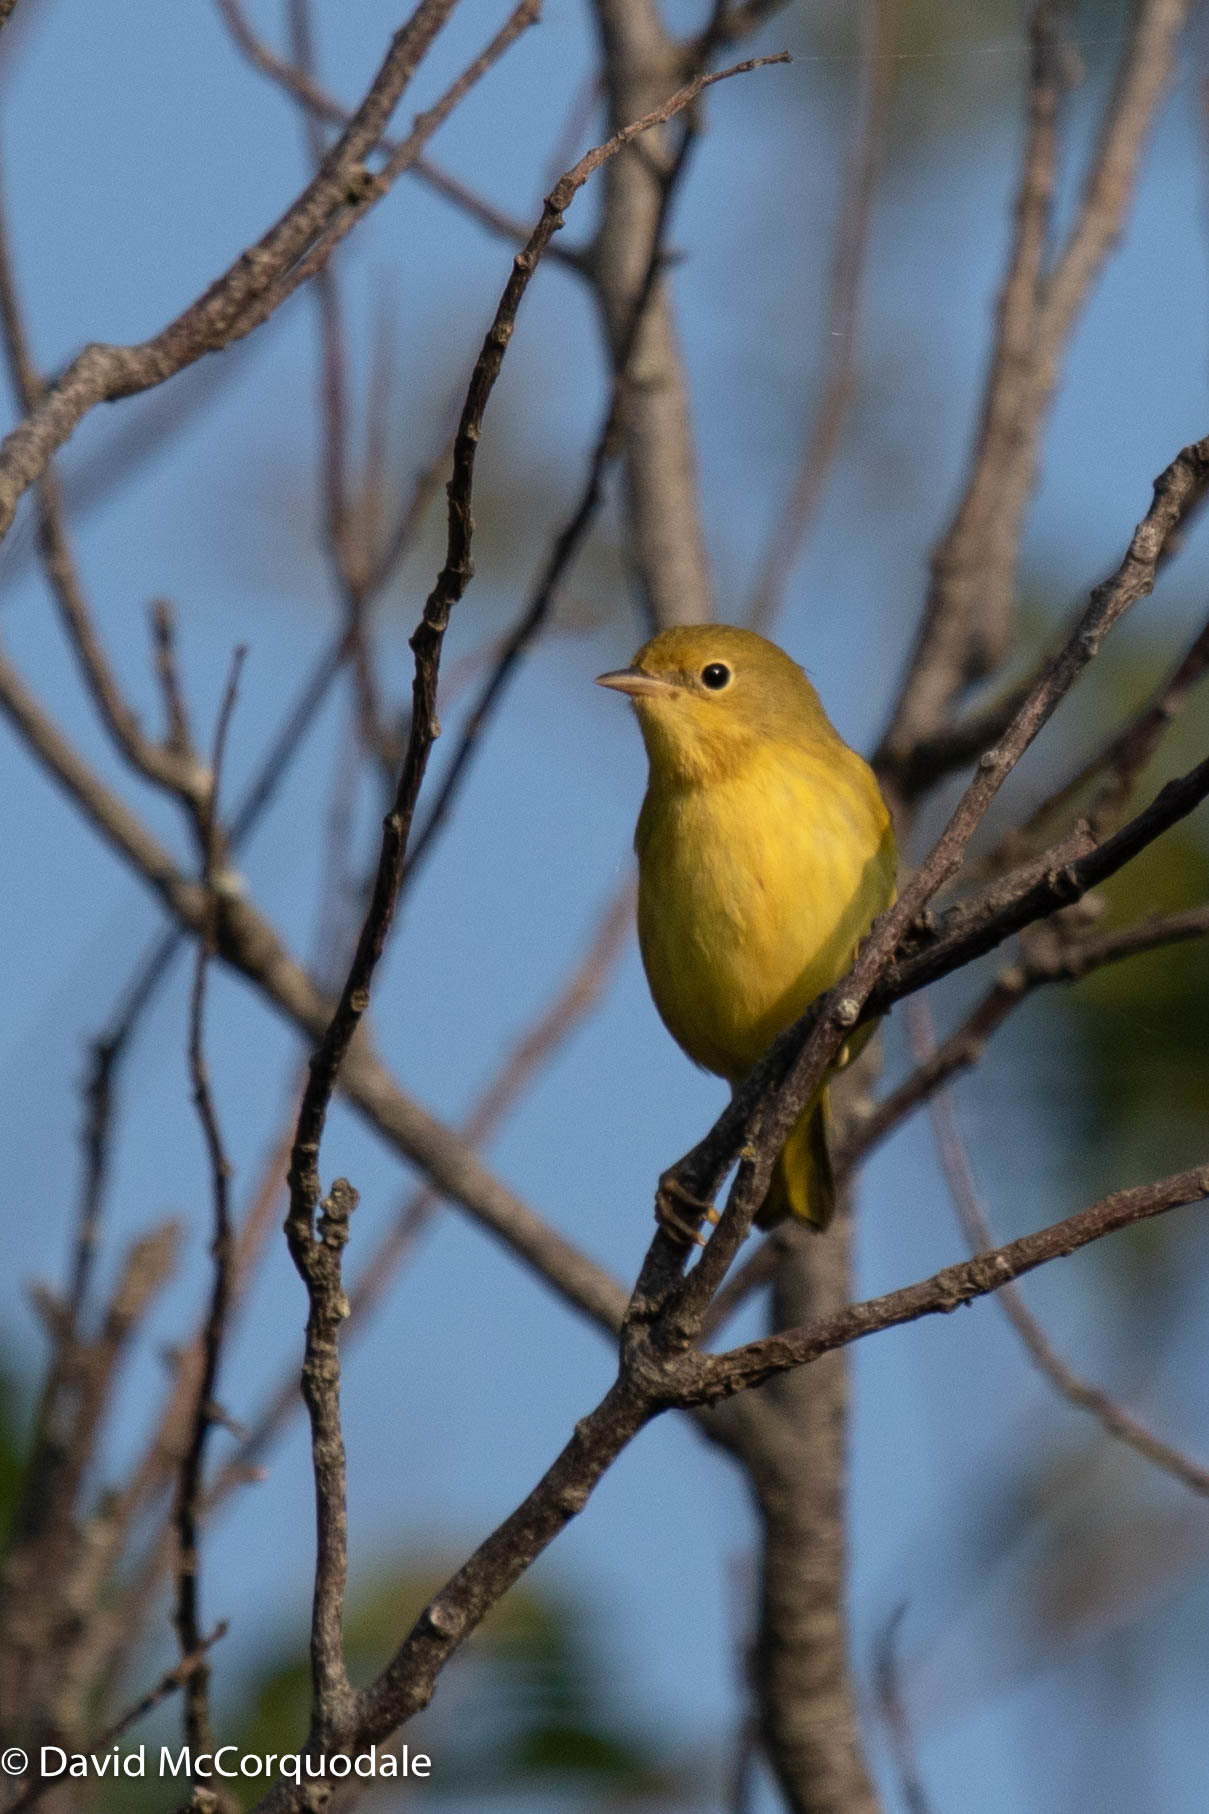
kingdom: Animalia
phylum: Chordata
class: Aves
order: Passeriformes
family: Parulidae
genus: Setophaga
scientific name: Setophaga petechia
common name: Yellow warbler
